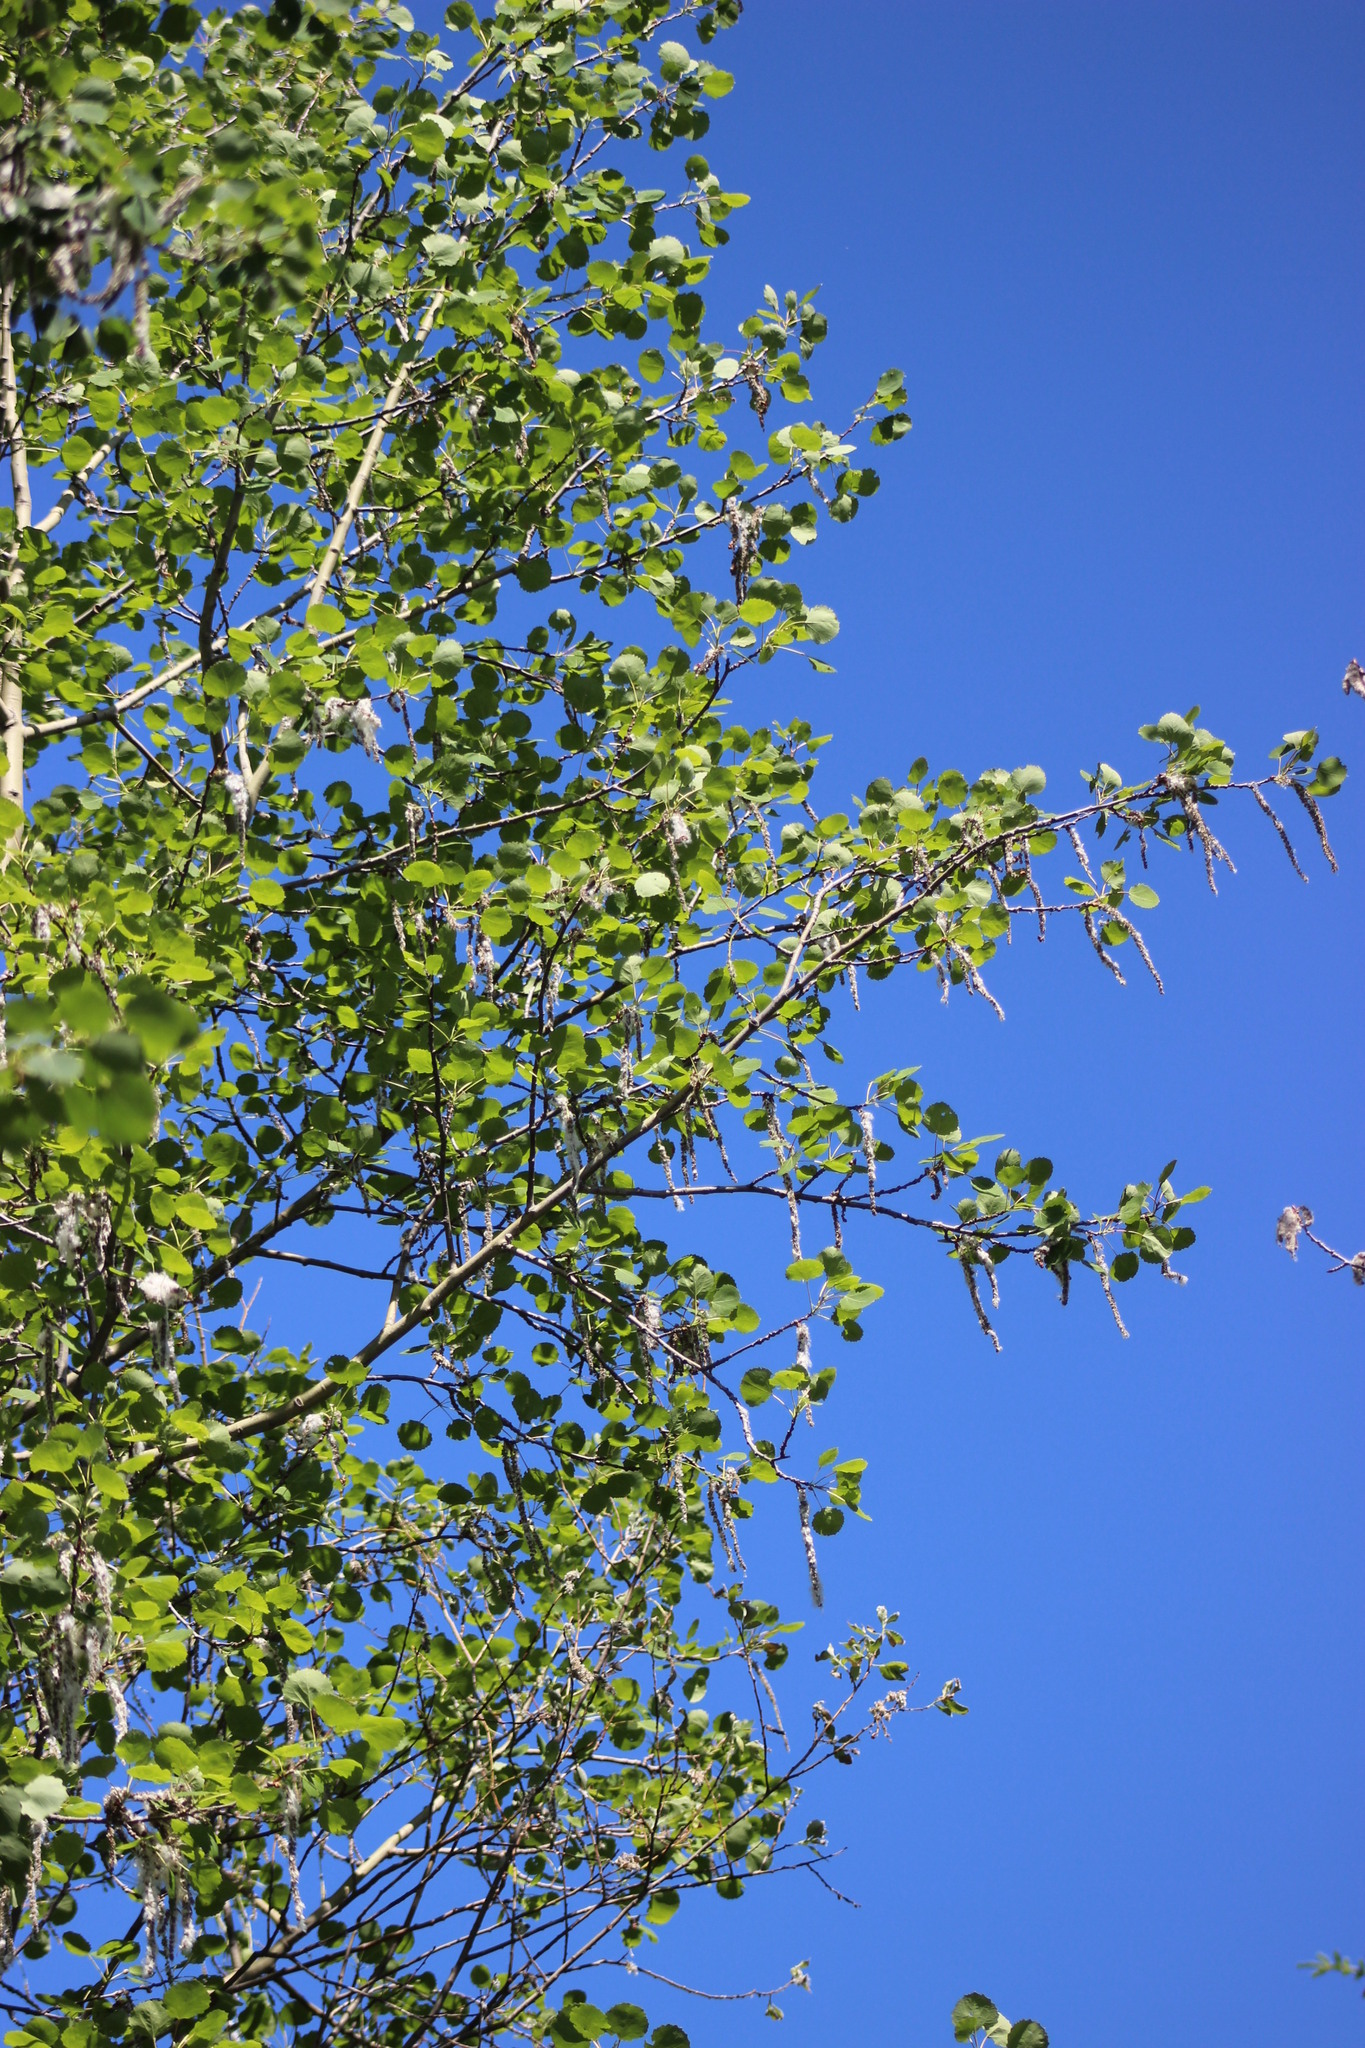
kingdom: Plantae
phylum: Tracheophyta
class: Magnoliopsida
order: Malpighiales
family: Salicaceae
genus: Populus
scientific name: Populus tremula
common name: European aspen
